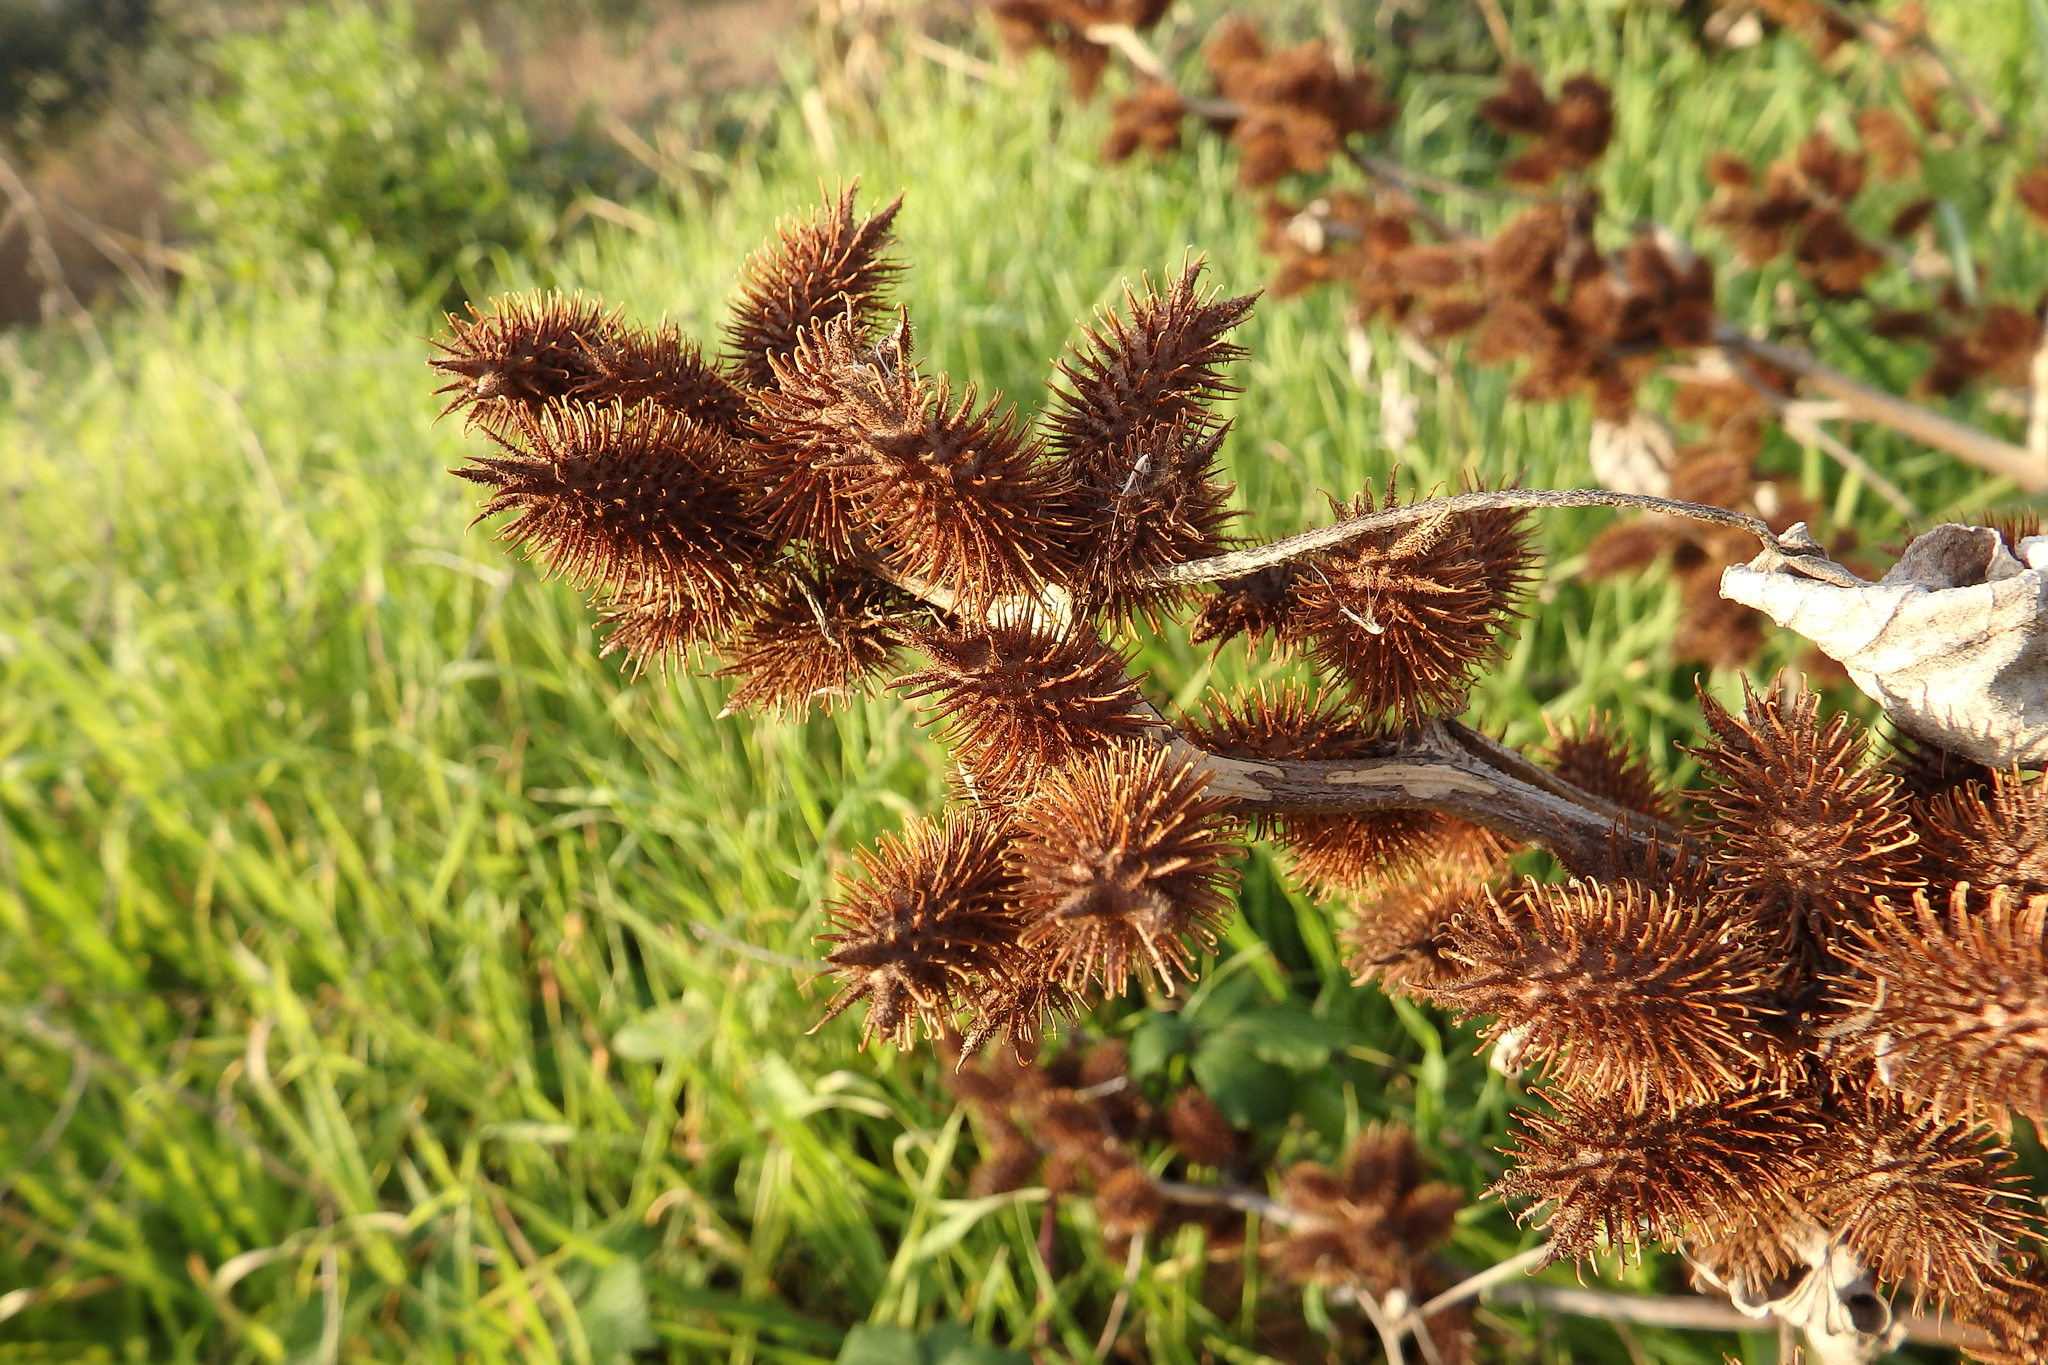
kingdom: Plantae
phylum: Tracheophyta
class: Magnoliopsida
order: Asterales
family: Asteraceae
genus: Xanthium
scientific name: Xanthium orientale
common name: Californian burr
